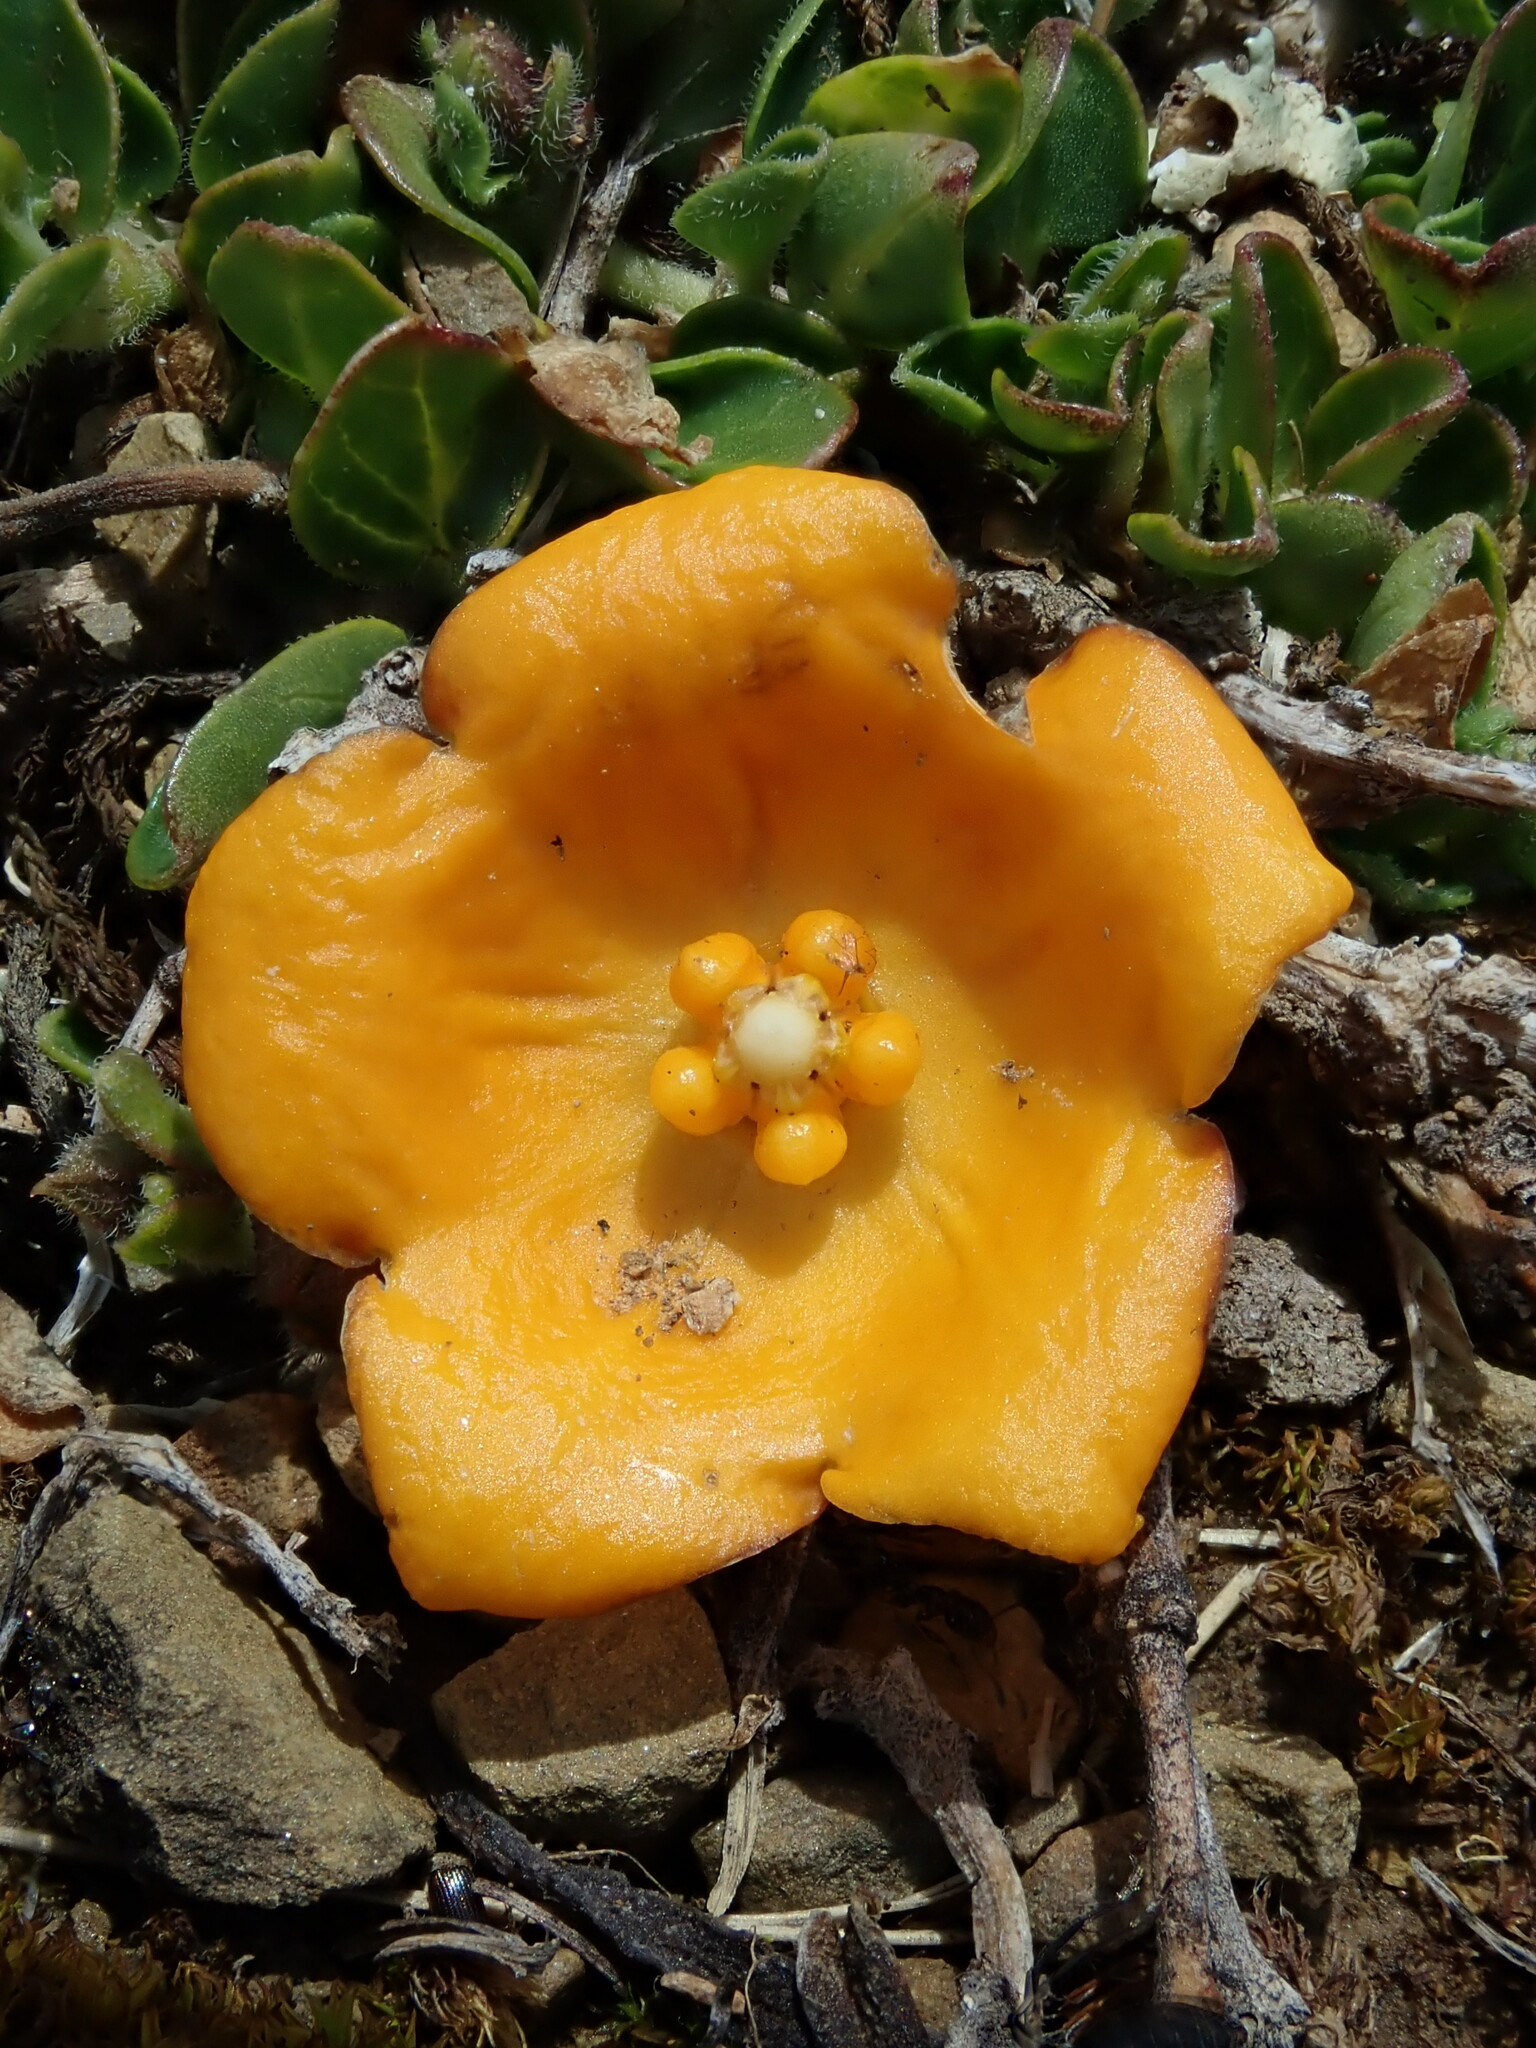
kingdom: Plantae
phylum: Tracheophyta
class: Magnoliopsida
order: Gentianales
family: Apocynaceae
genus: Philibertia
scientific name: Philibertia lysimachioides
